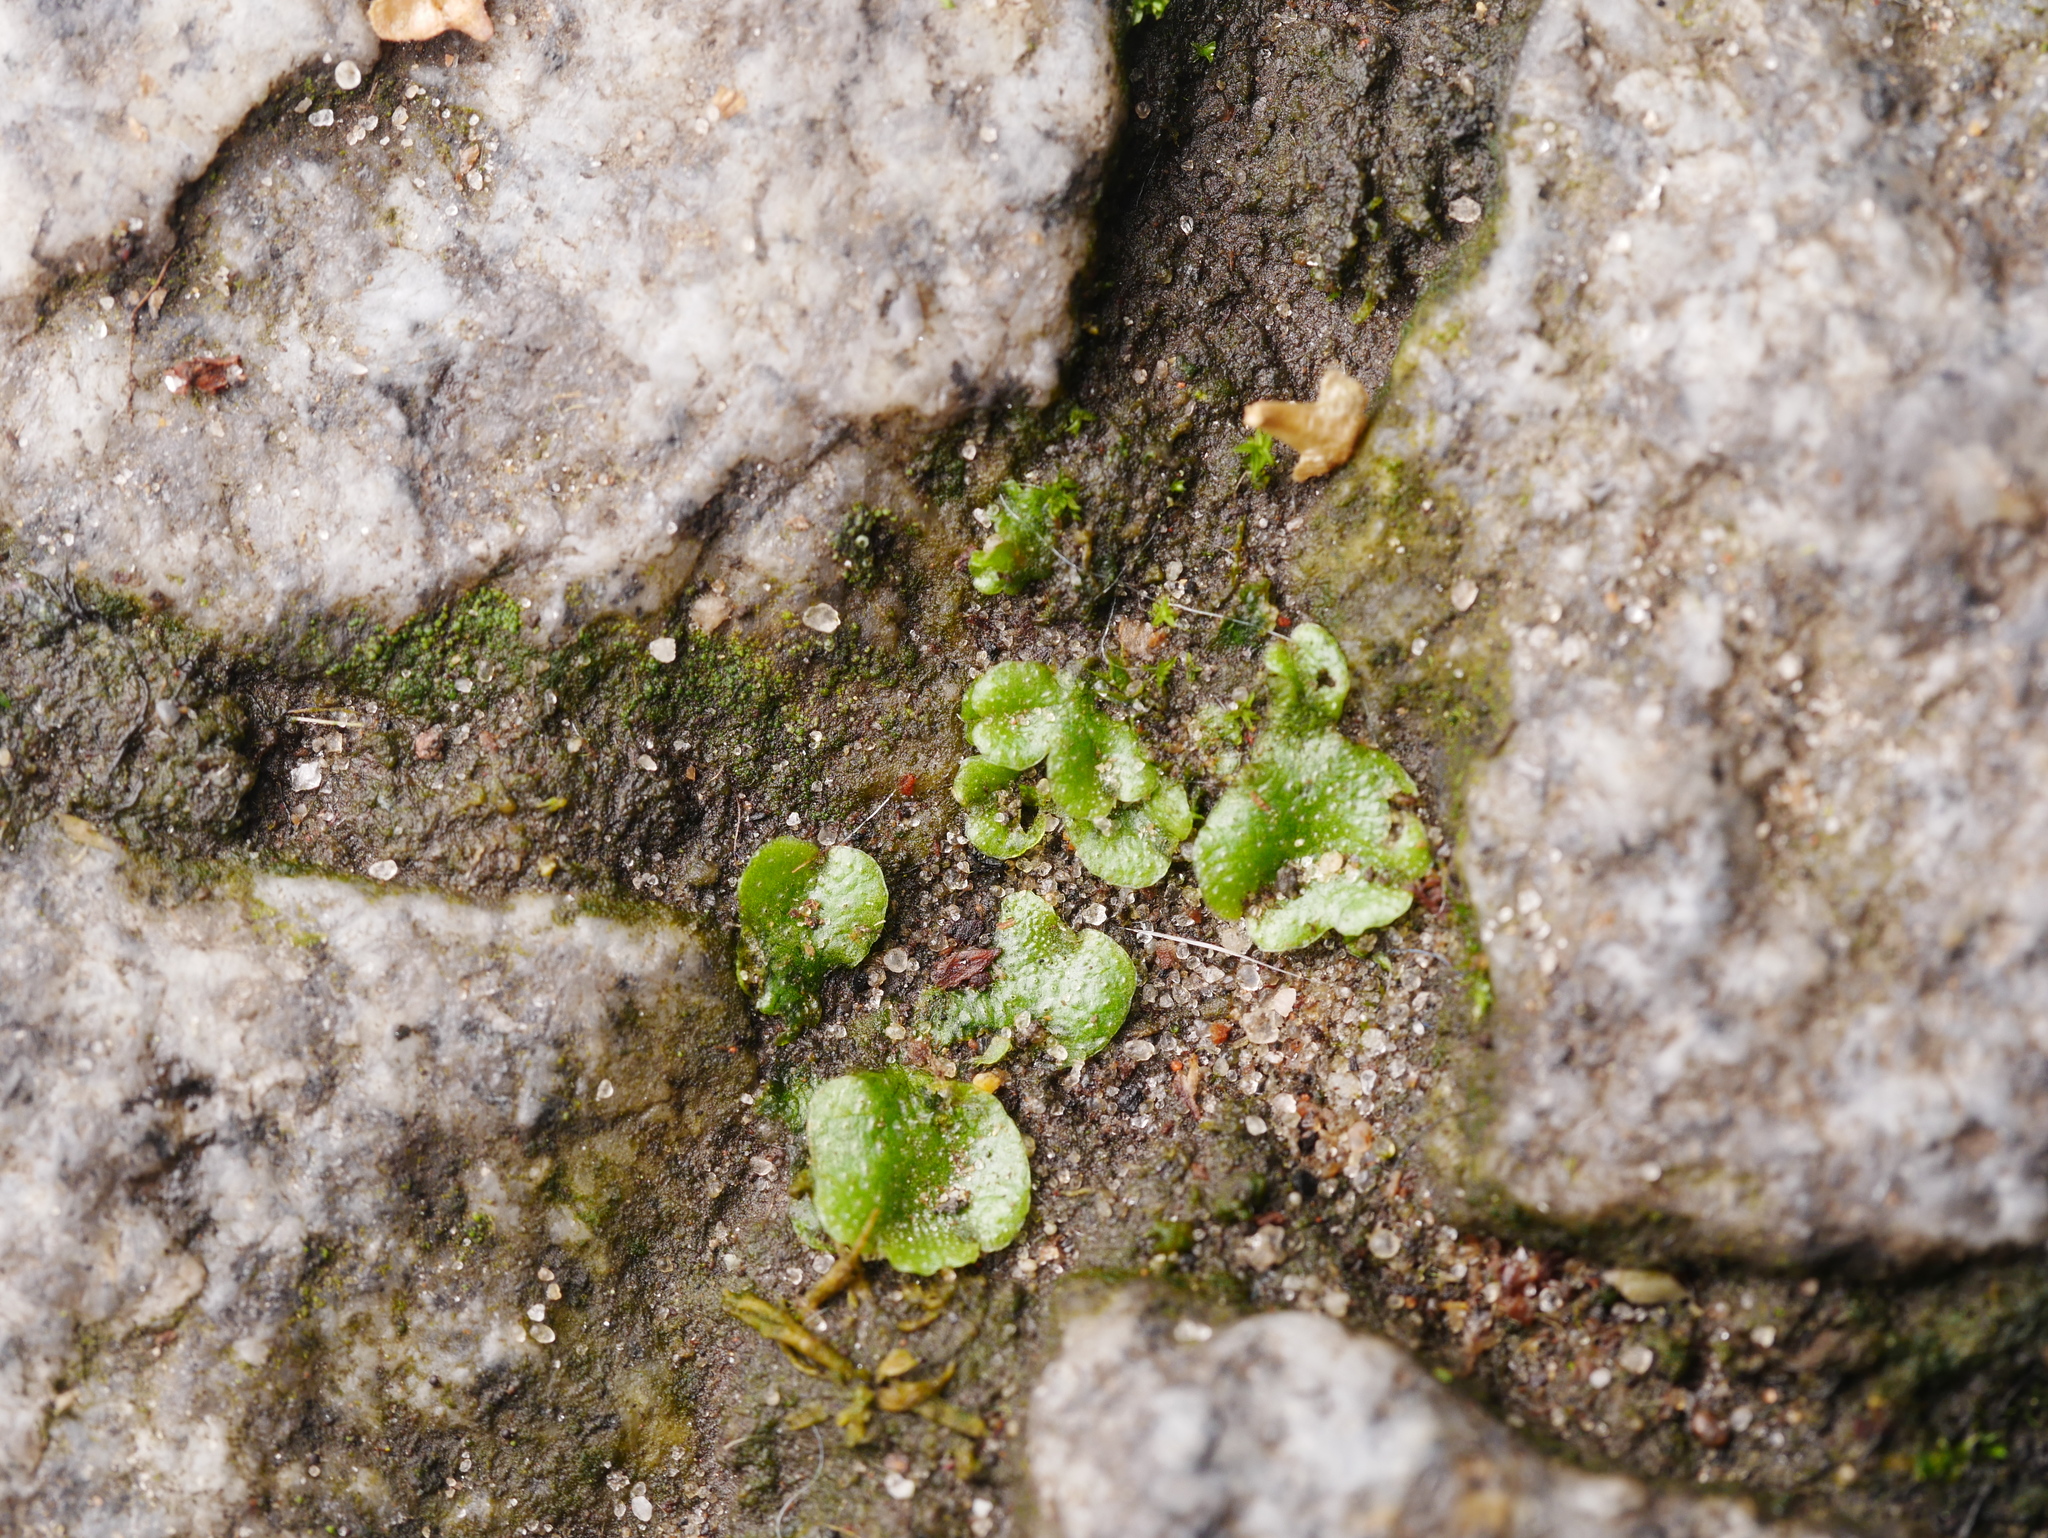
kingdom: Plantae
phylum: Marchantiophyta
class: Marchantiopsida
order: Lunulariales
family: Lunulariaceae
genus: Lunularia
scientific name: Lunularia cruciata
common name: Crescent-cup liverwort
